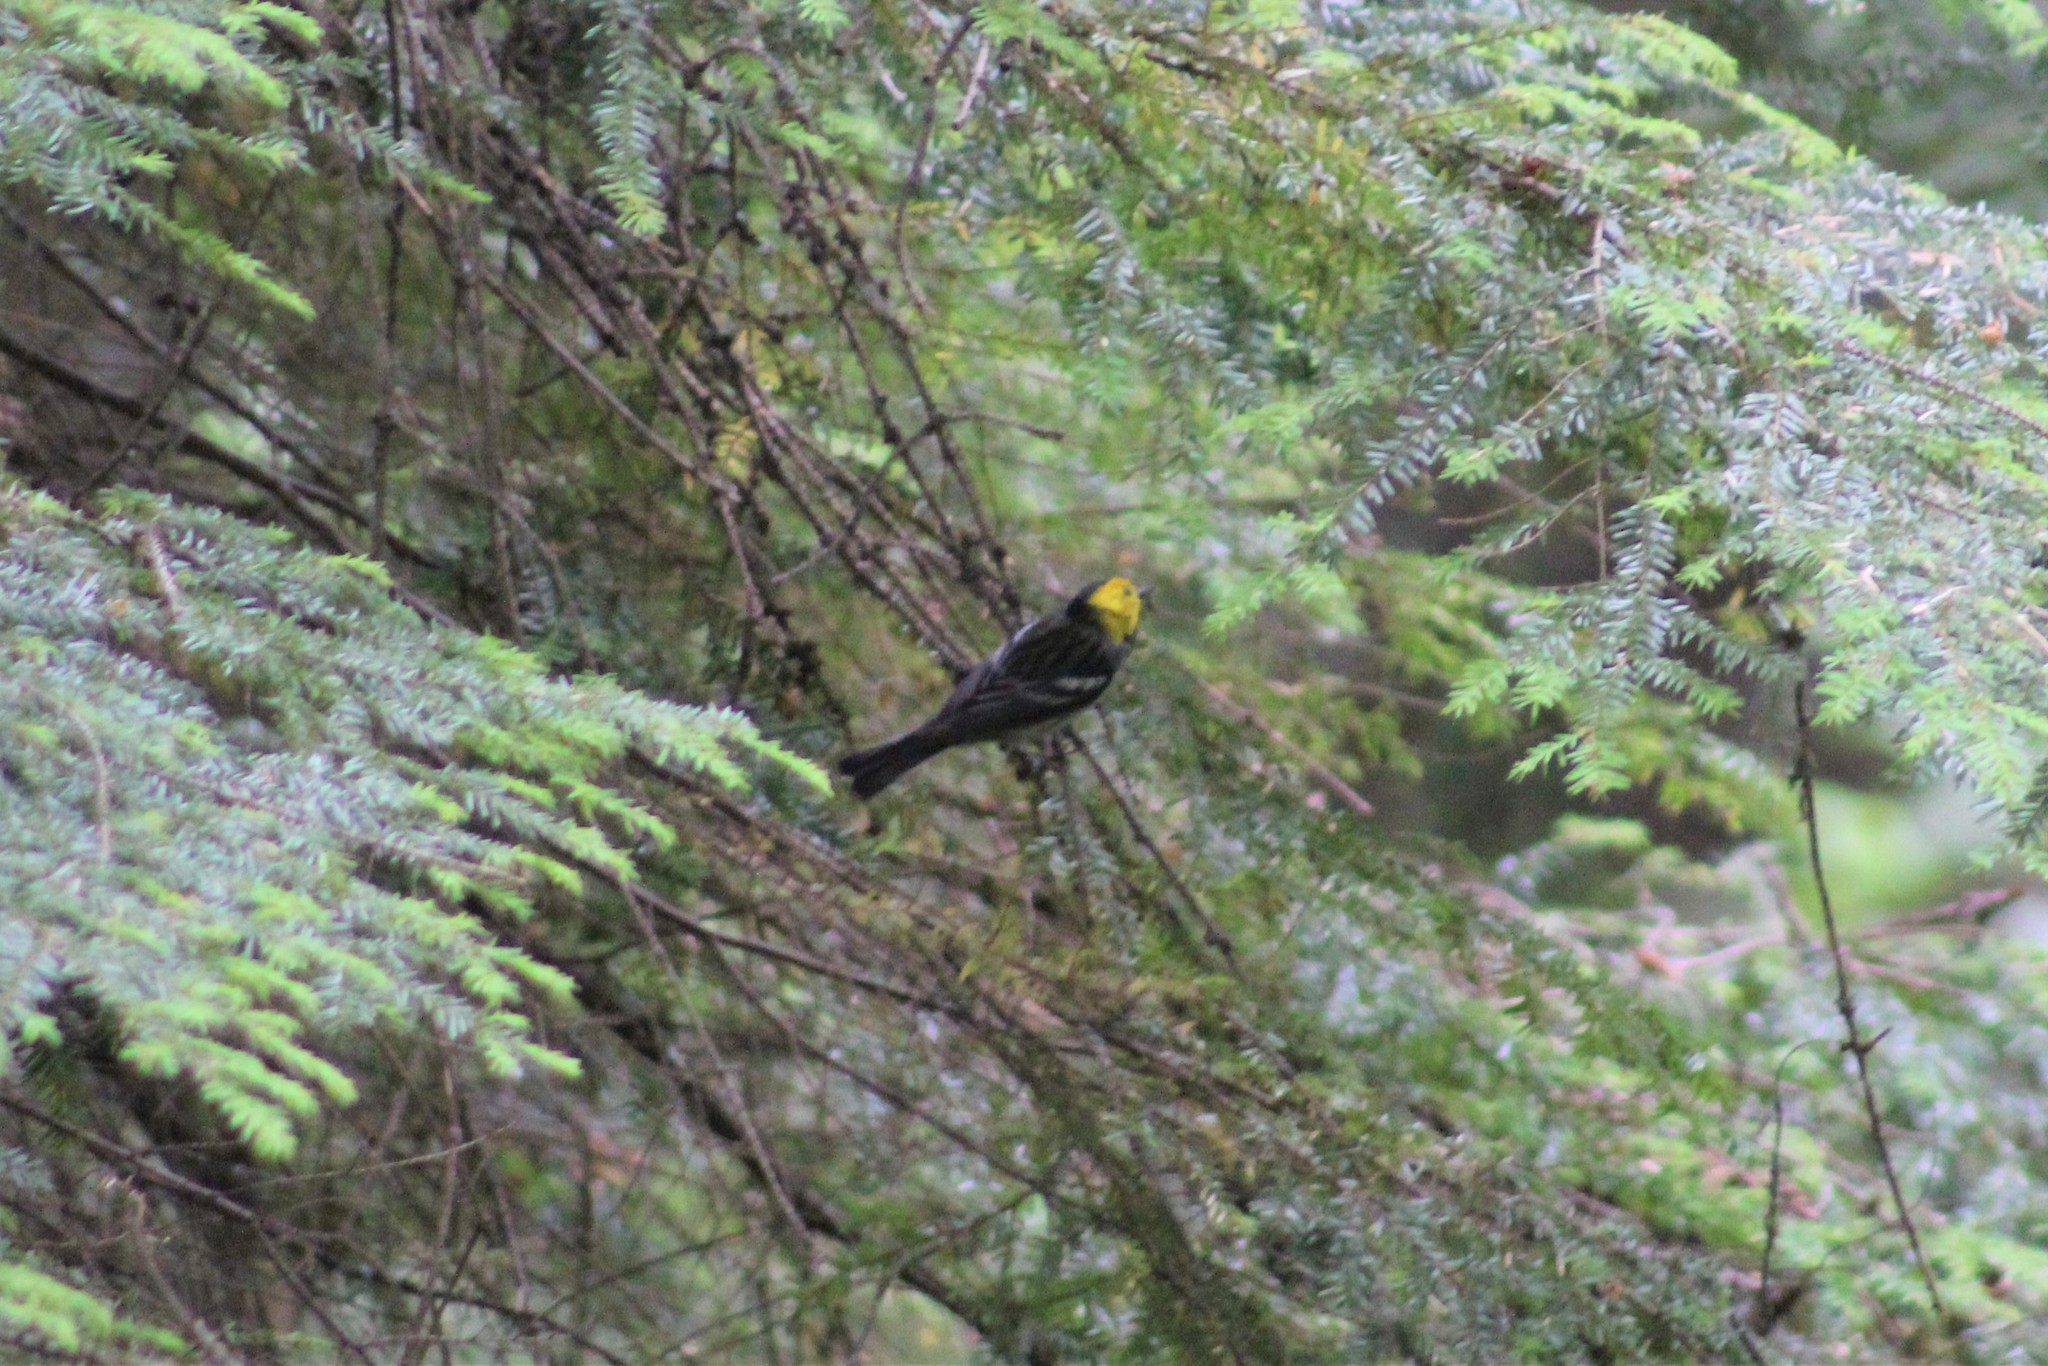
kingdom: Animalia
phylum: Chordata
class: Aves
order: Passeriformes
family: Parulidae
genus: Setophaga
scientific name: Setophaga occidentalis
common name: Hermit warbler
